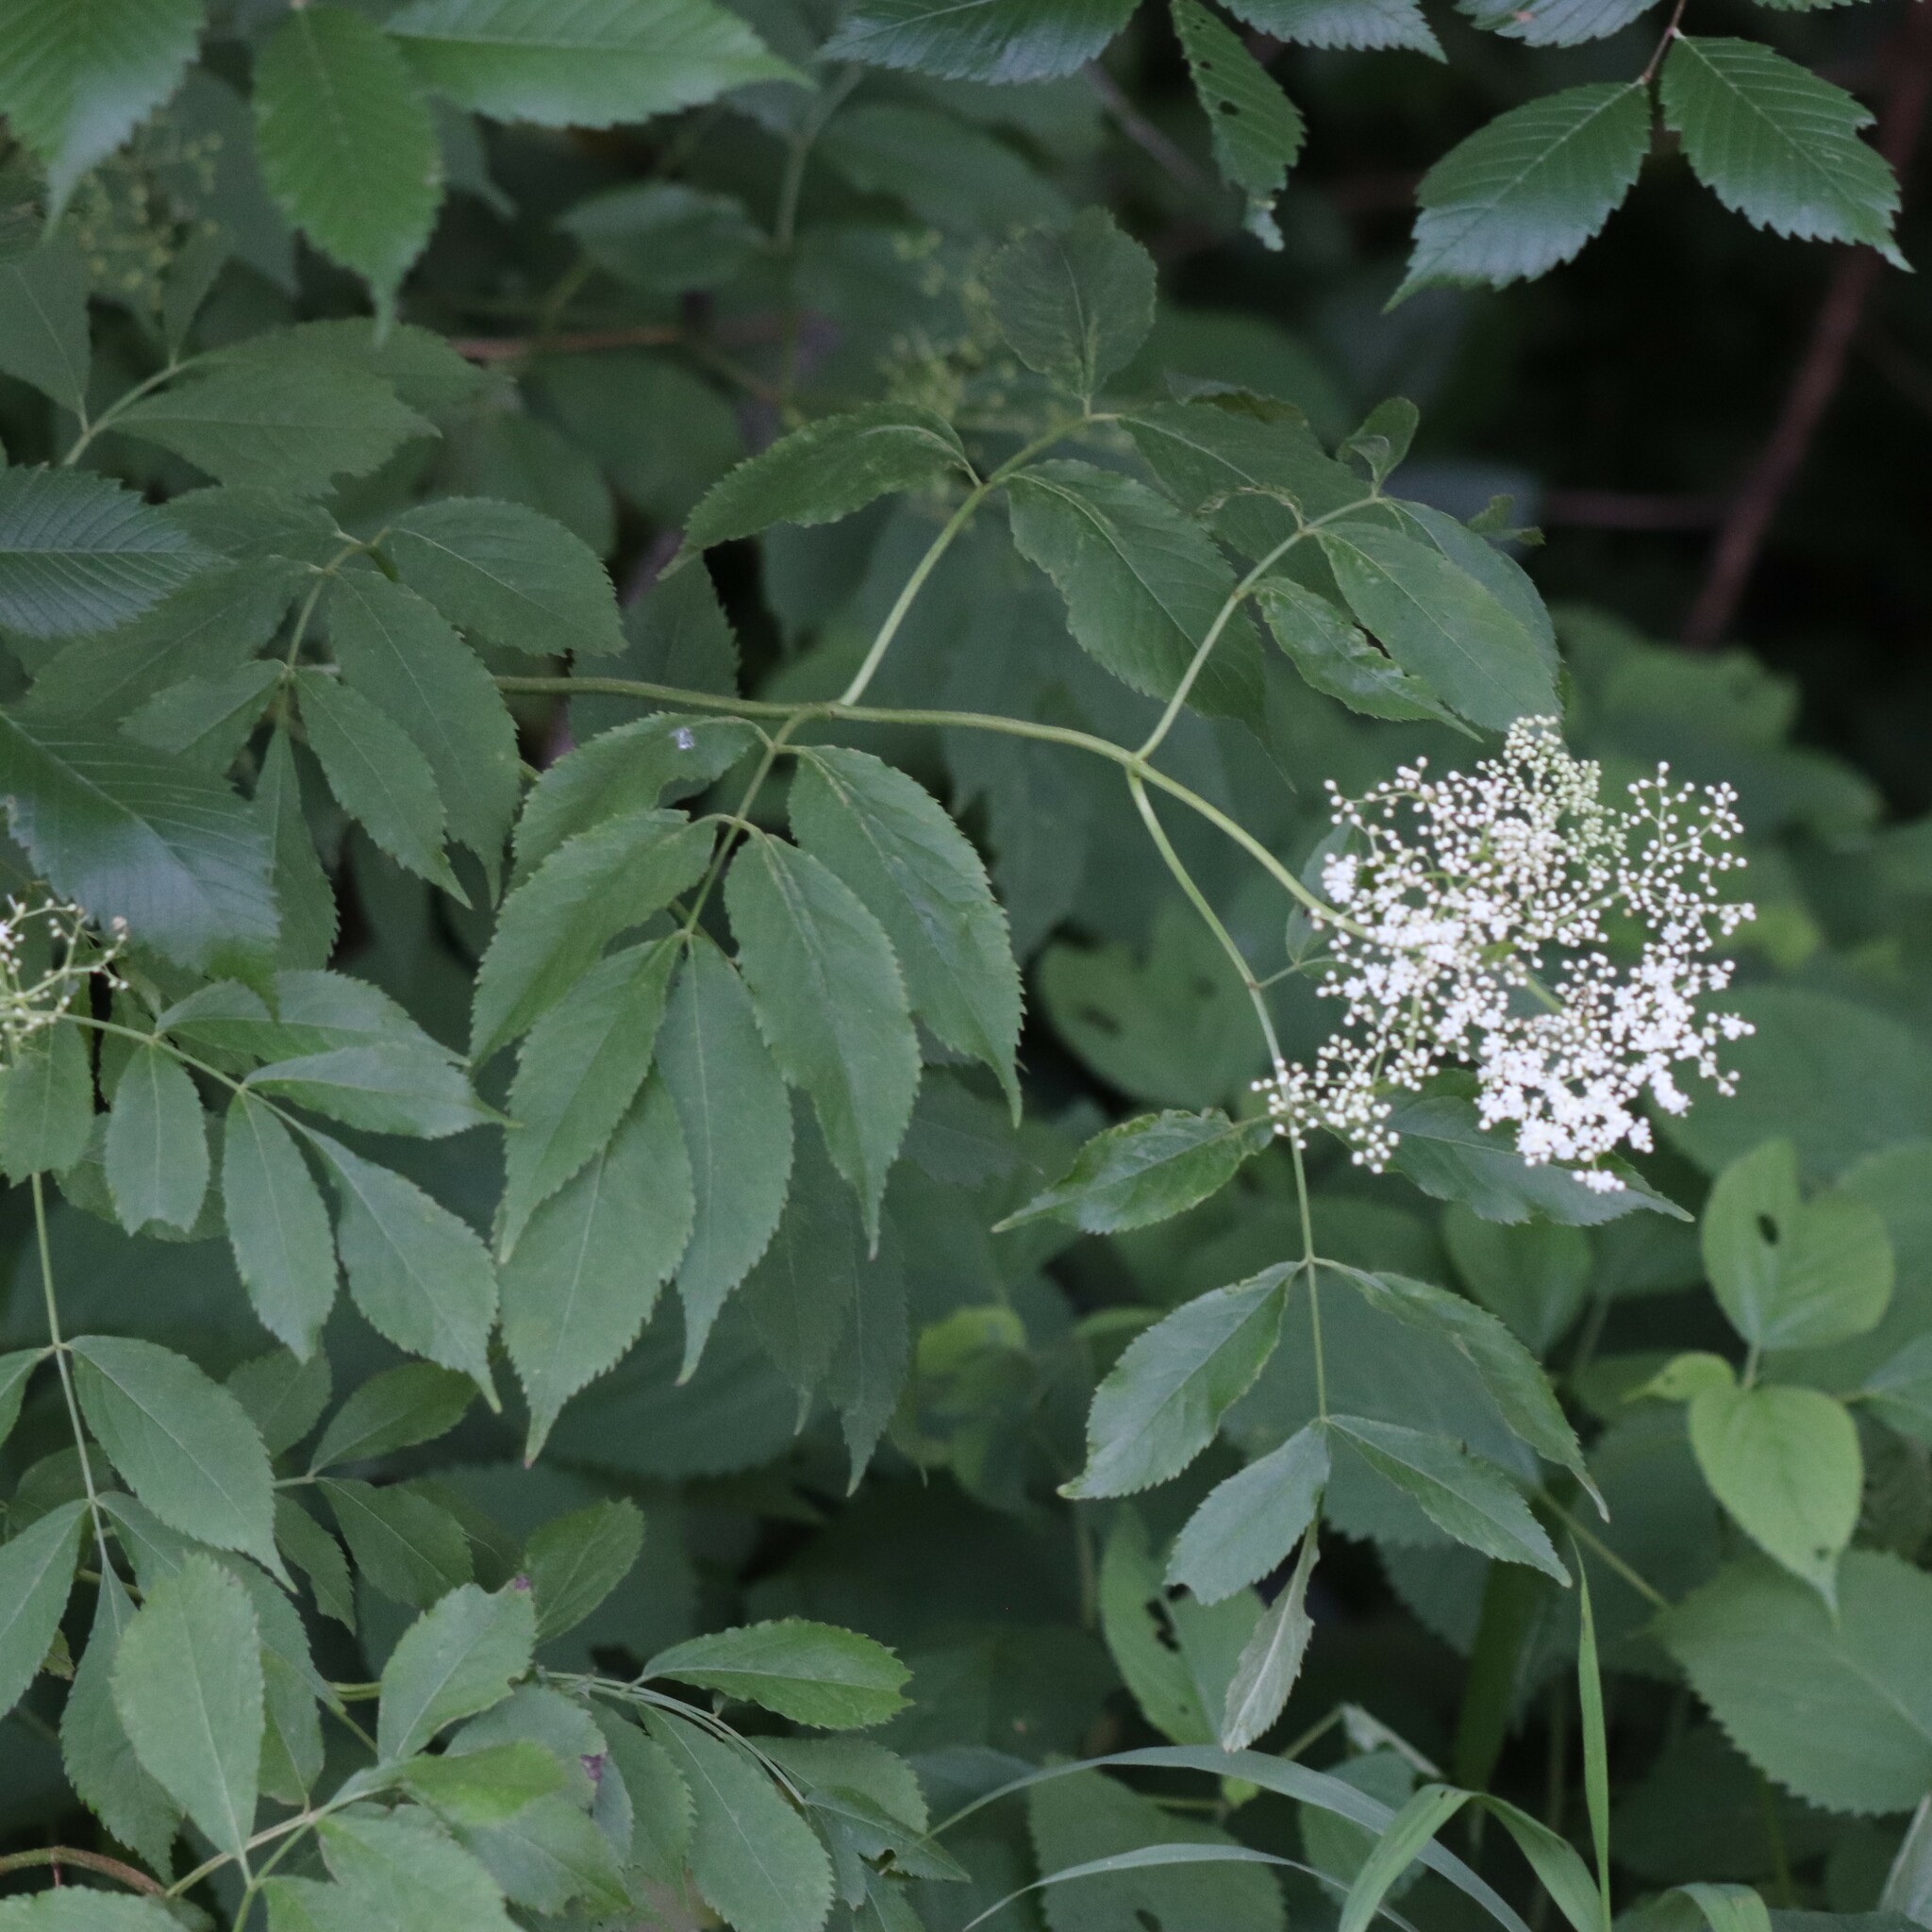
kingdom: Plantae
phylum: Tracheophyta
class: Magnoliopsida
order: Dipsacales
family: Viburnaceae
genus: Sambucus
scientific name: Sambucus canadensis
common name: American elder
